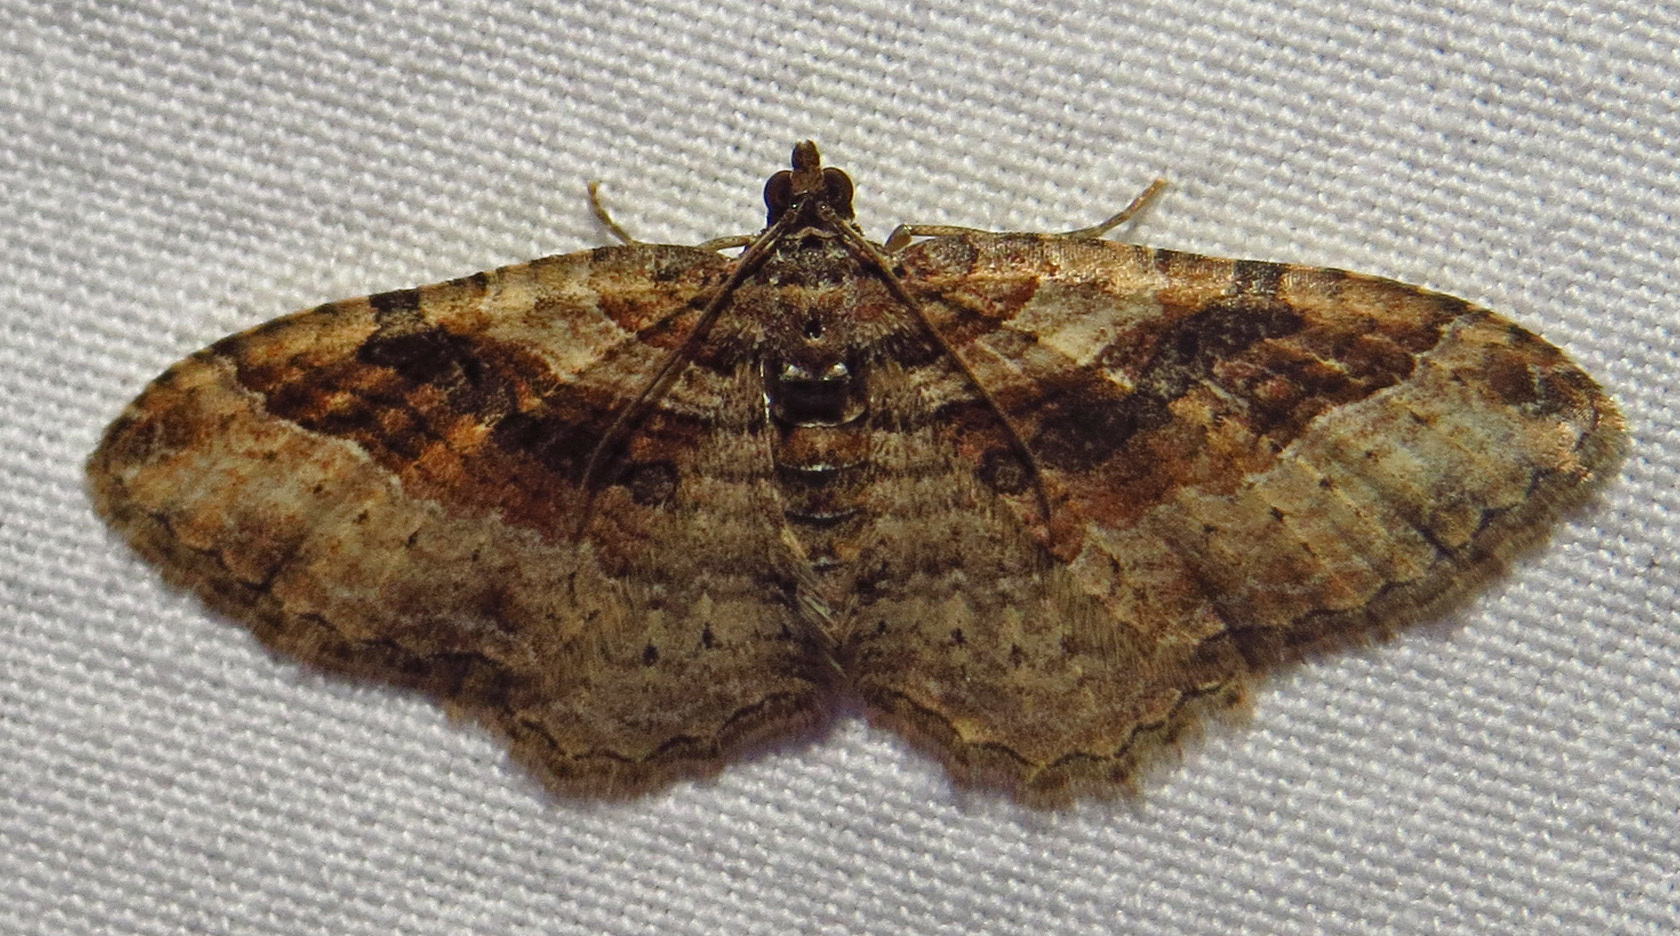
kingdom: Animalia
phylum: Arthropoda
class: Insecta
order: Lepidoptera
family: Geometridae
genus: Costaconvexa
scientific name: Costaconvexa centrostrigaria
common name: Bent-line carpet
